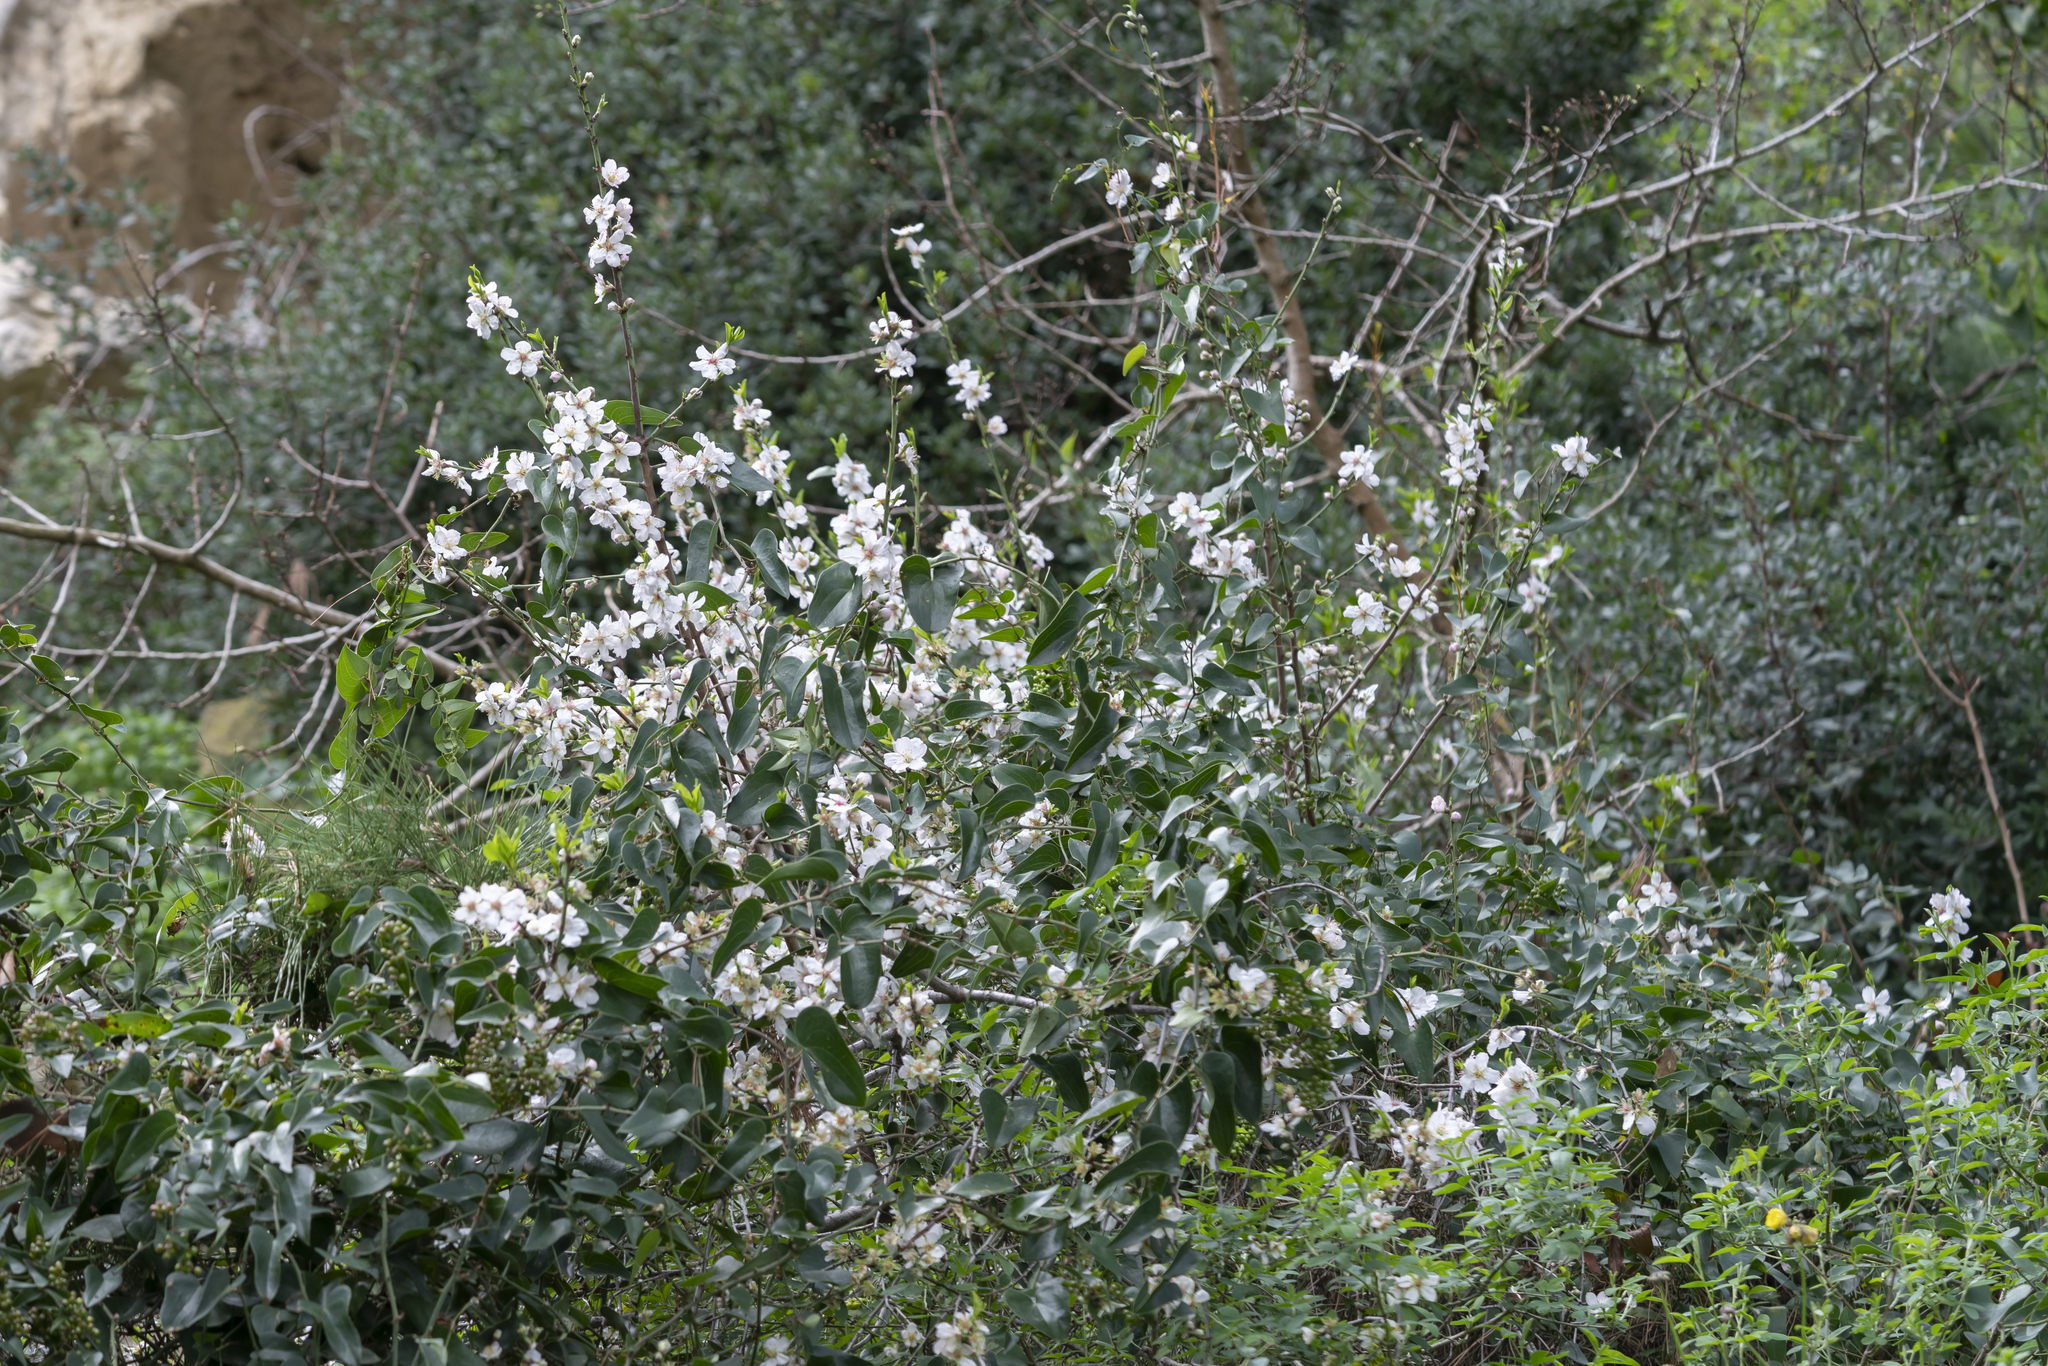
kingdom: Plantae
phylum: Tracheophyta
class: Magnoliopsida
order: Rosales
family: Rosaceae
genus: Prunus
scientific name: Prunus amygdalus
